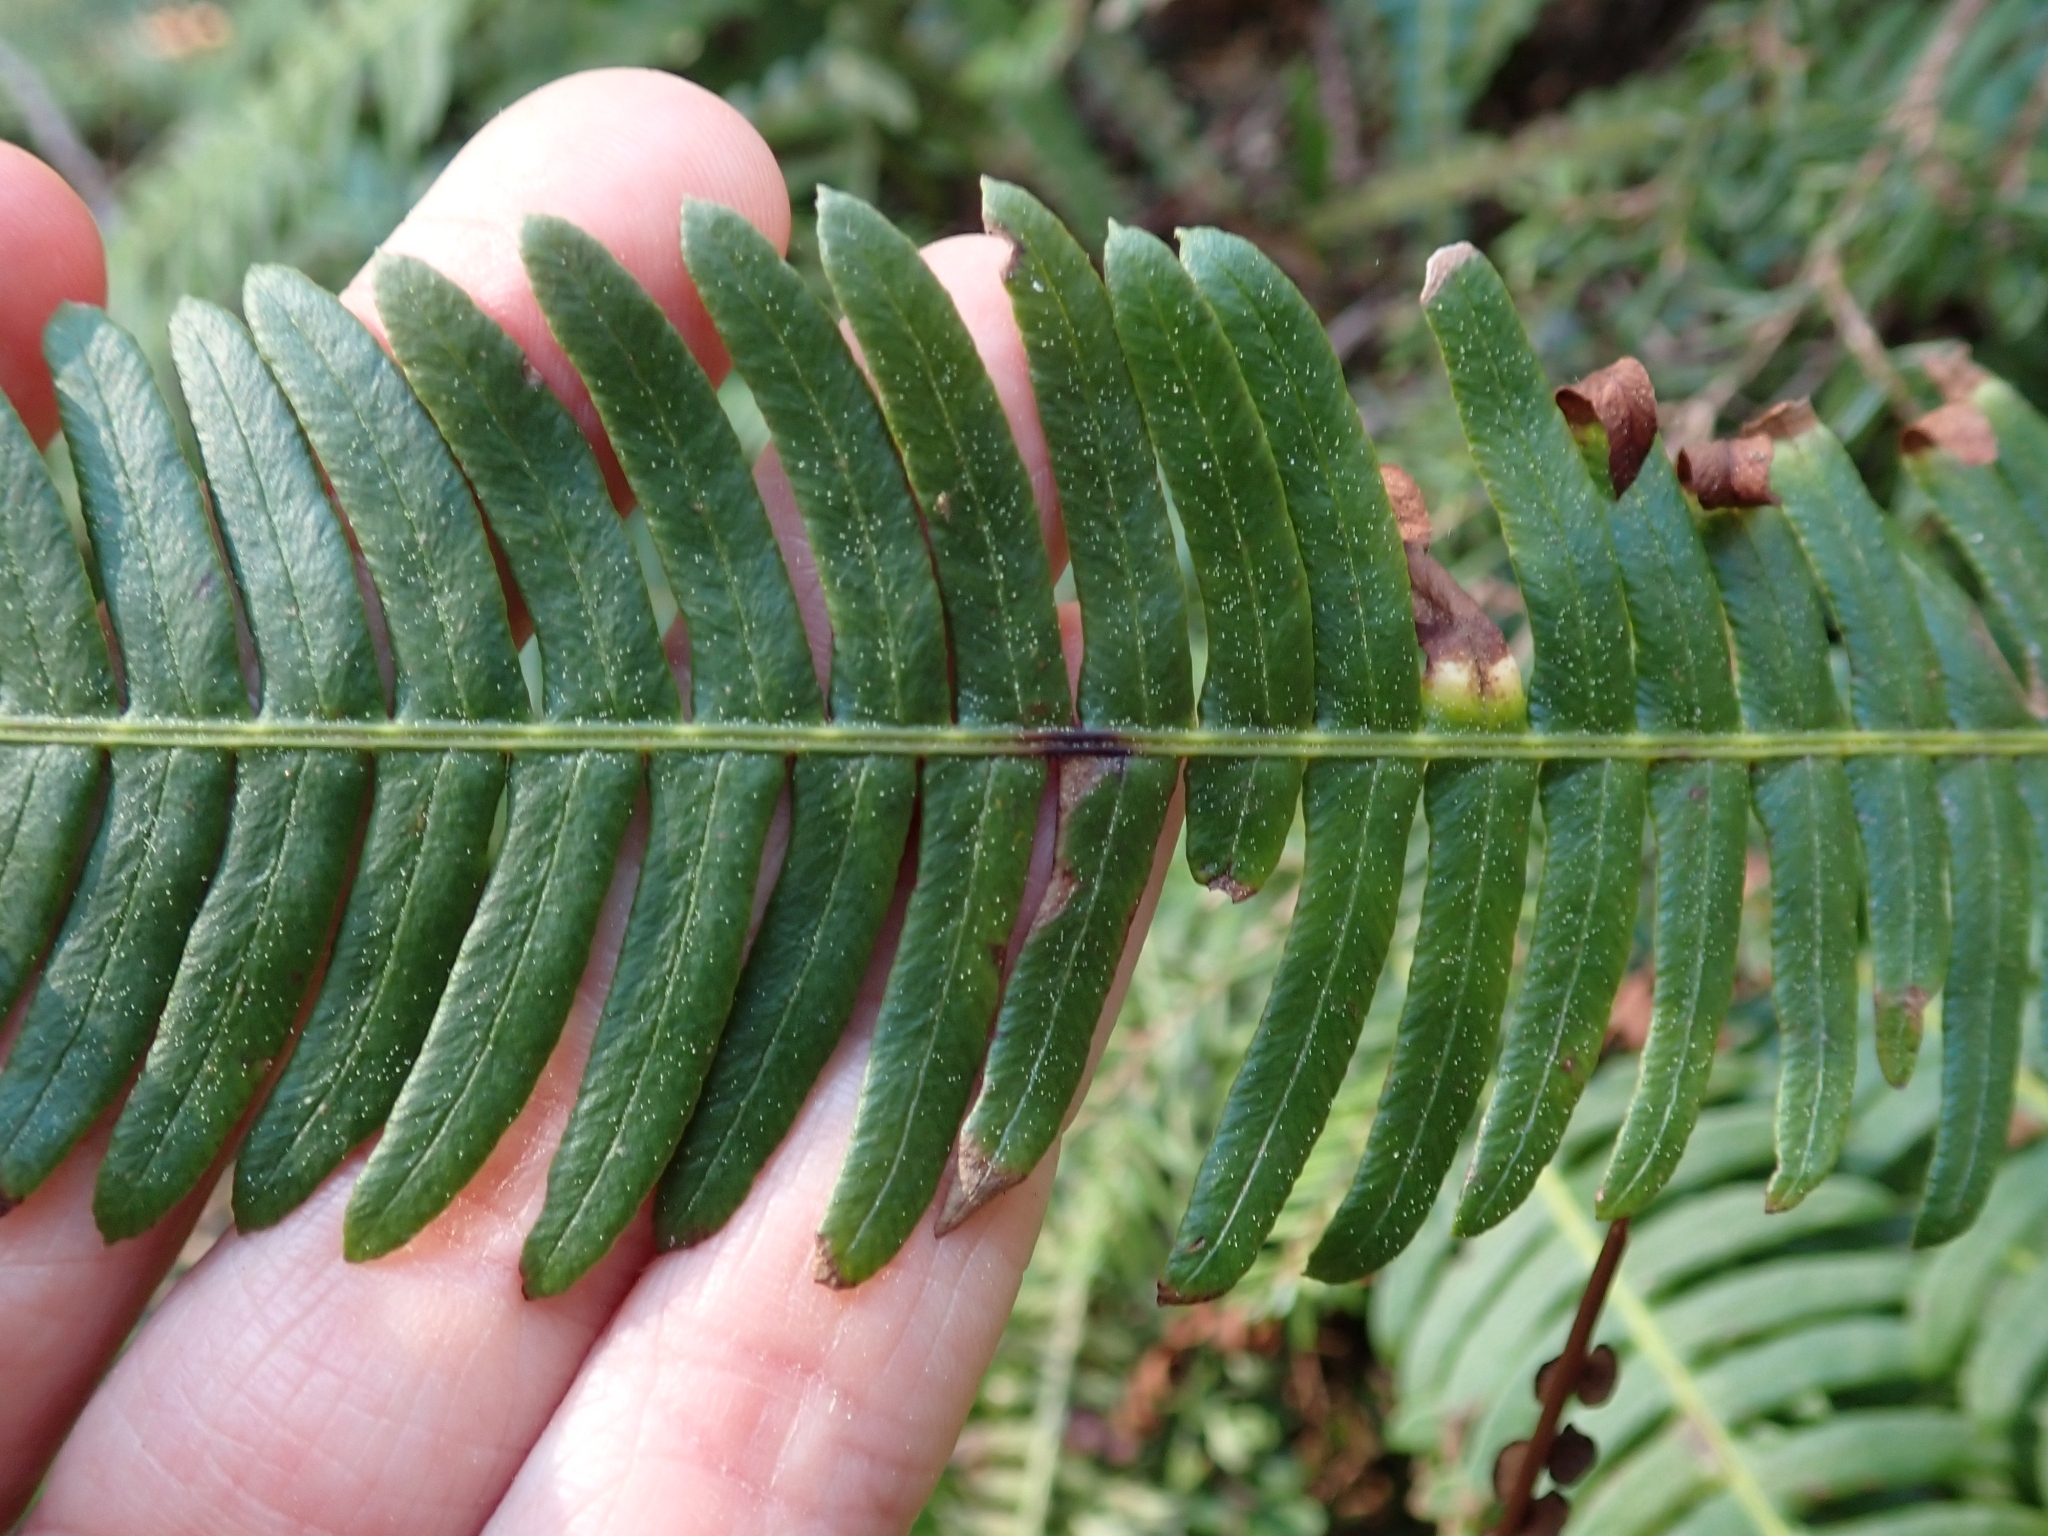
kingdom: Plantae
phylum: Tracheophyta
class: Polypodiopsida
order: Polypodiales
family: Blechnaceae
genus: Struthiopteris
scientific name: Struthiopteris spicant
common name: Deer fern
